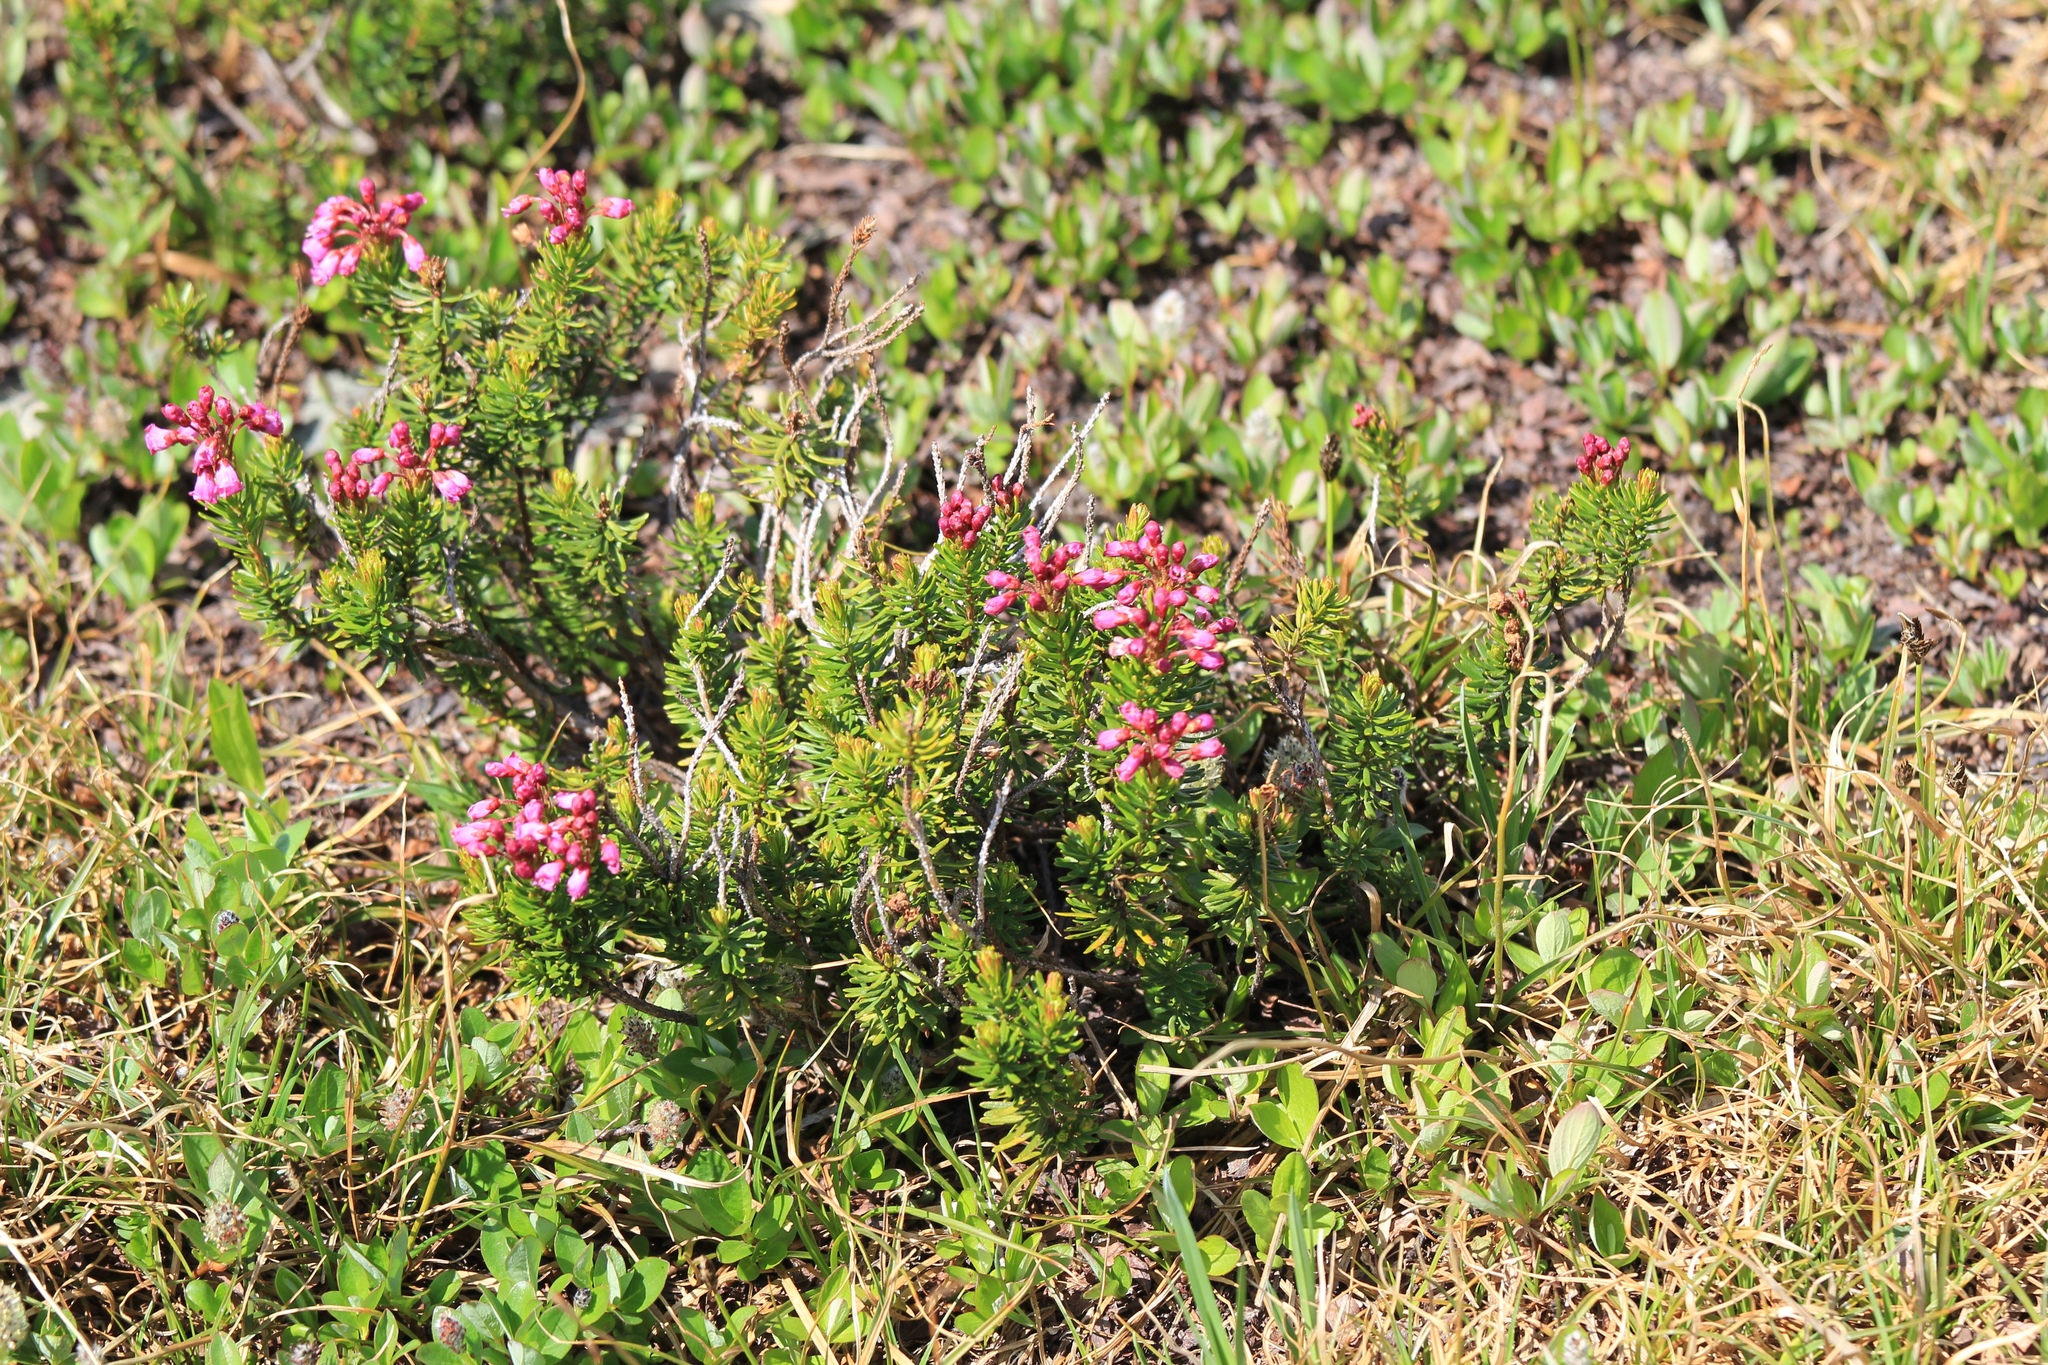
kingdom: Plantae
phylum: Tracheophyta
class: Magnoliopsida
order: Ericales
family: Ericaceae
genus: Phyllodoce
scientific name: Phyllodoce empetriformis
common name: Pink mountain heather
